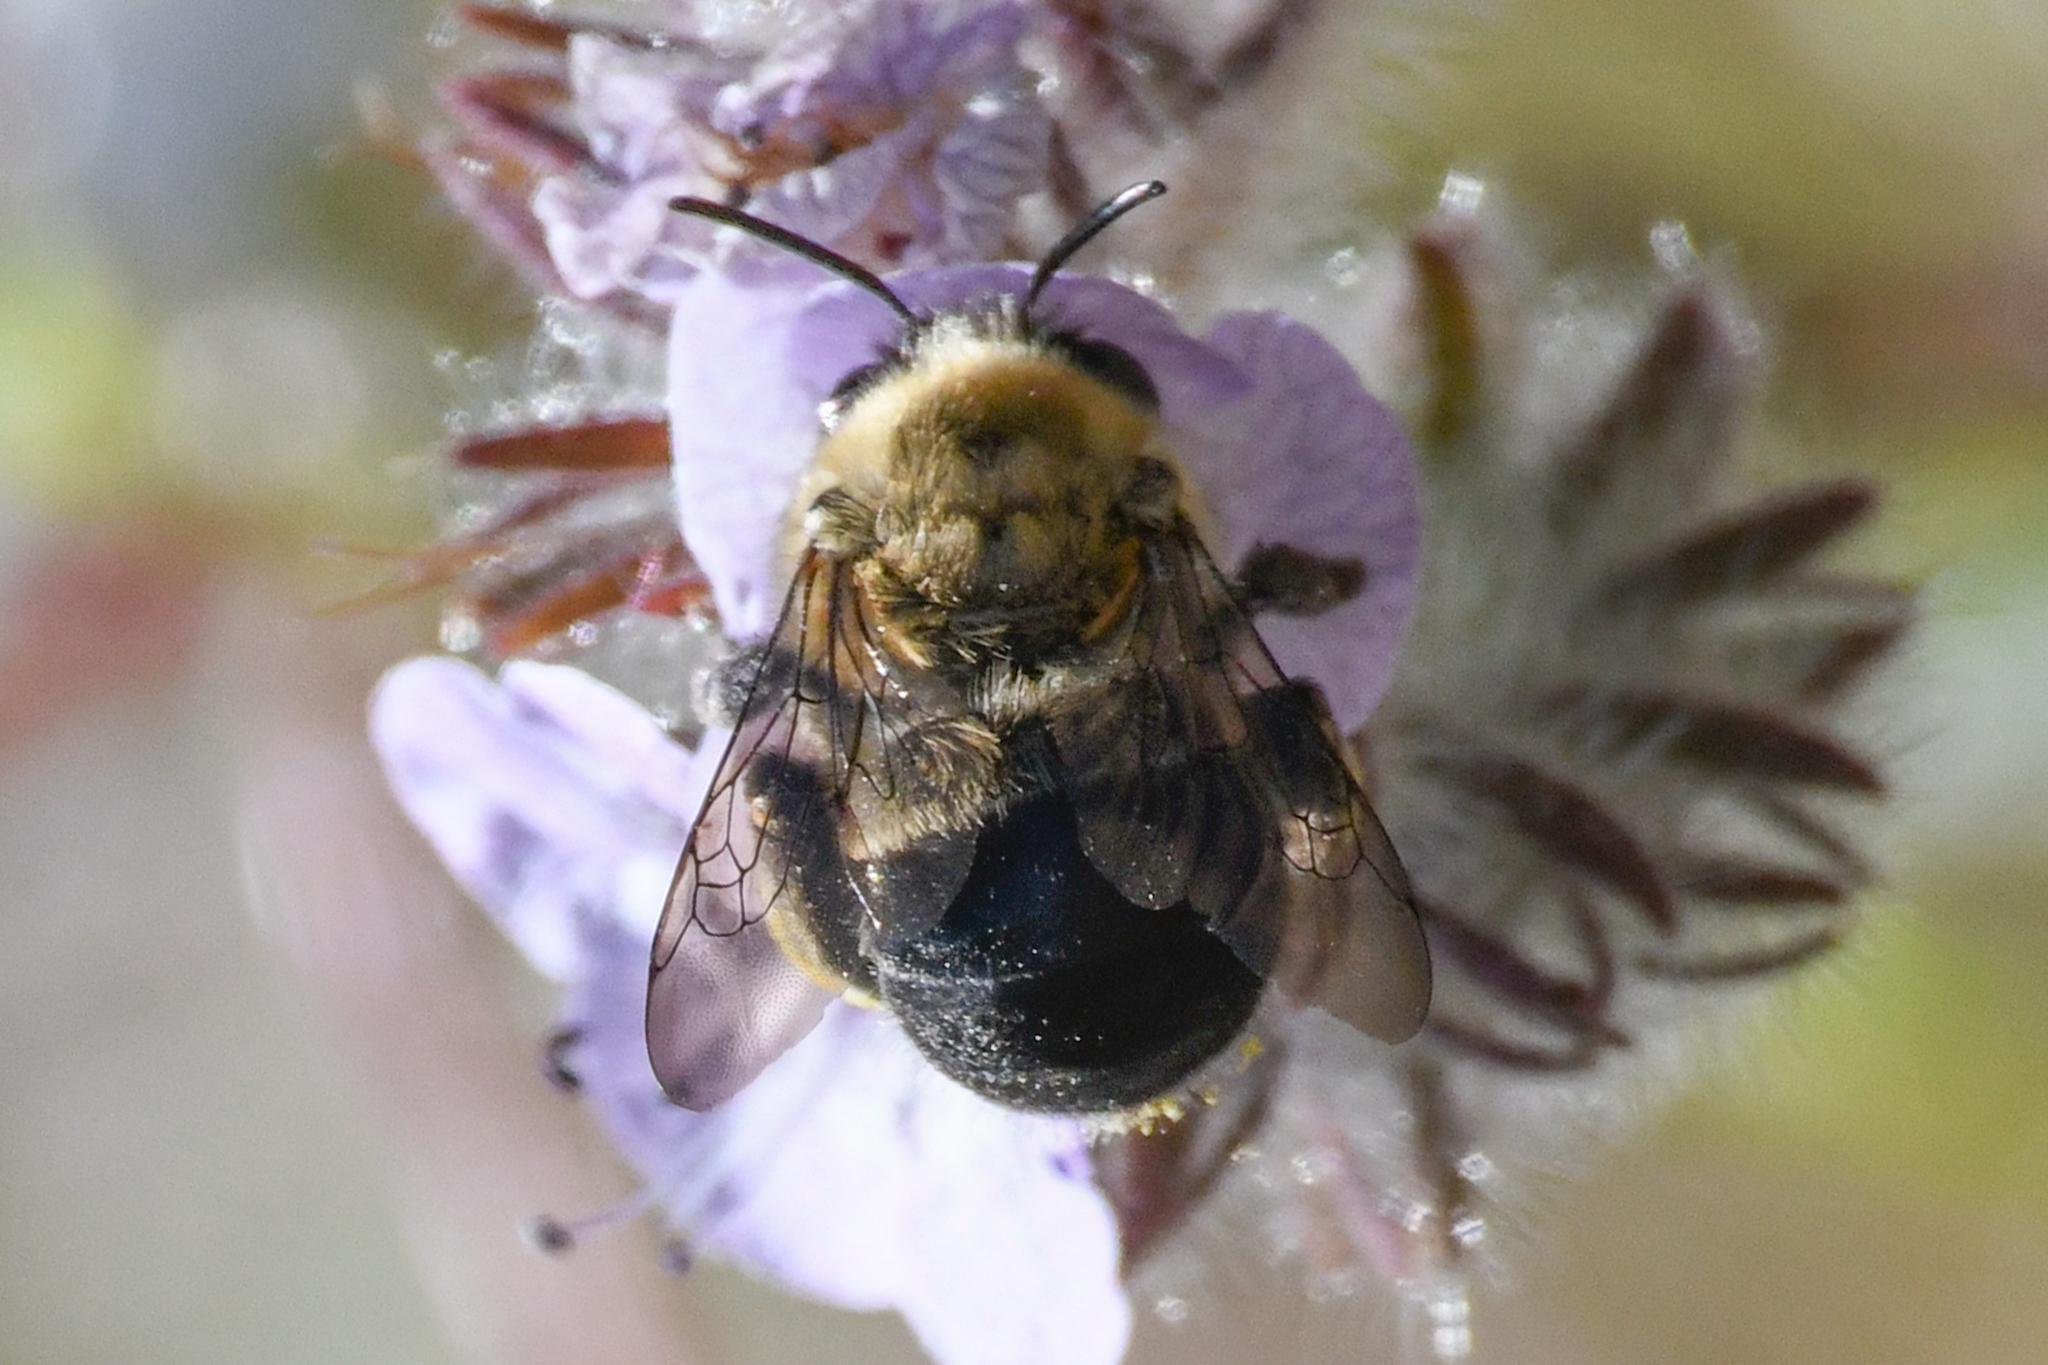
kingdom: Animalia
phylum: Arthropoda
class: Insecta
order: Hymenoptera
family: Apidae
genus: Habropoda
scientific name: Habropoda tristissima
